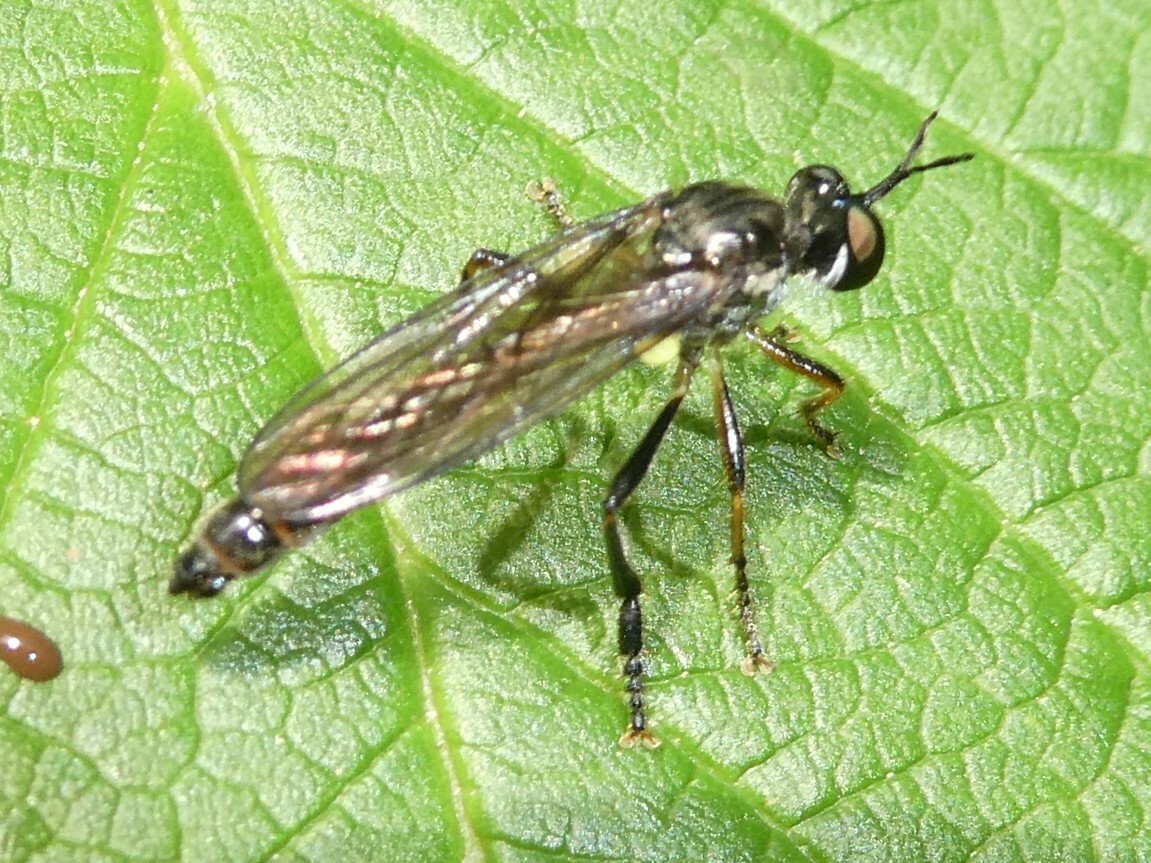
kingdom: Animalia
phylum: Arthropoda
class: Insecta
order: Diptera
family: Asilidae
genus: Dioctria
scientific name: Dioctria hyalipennis
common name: Stripe-legged robberfly
